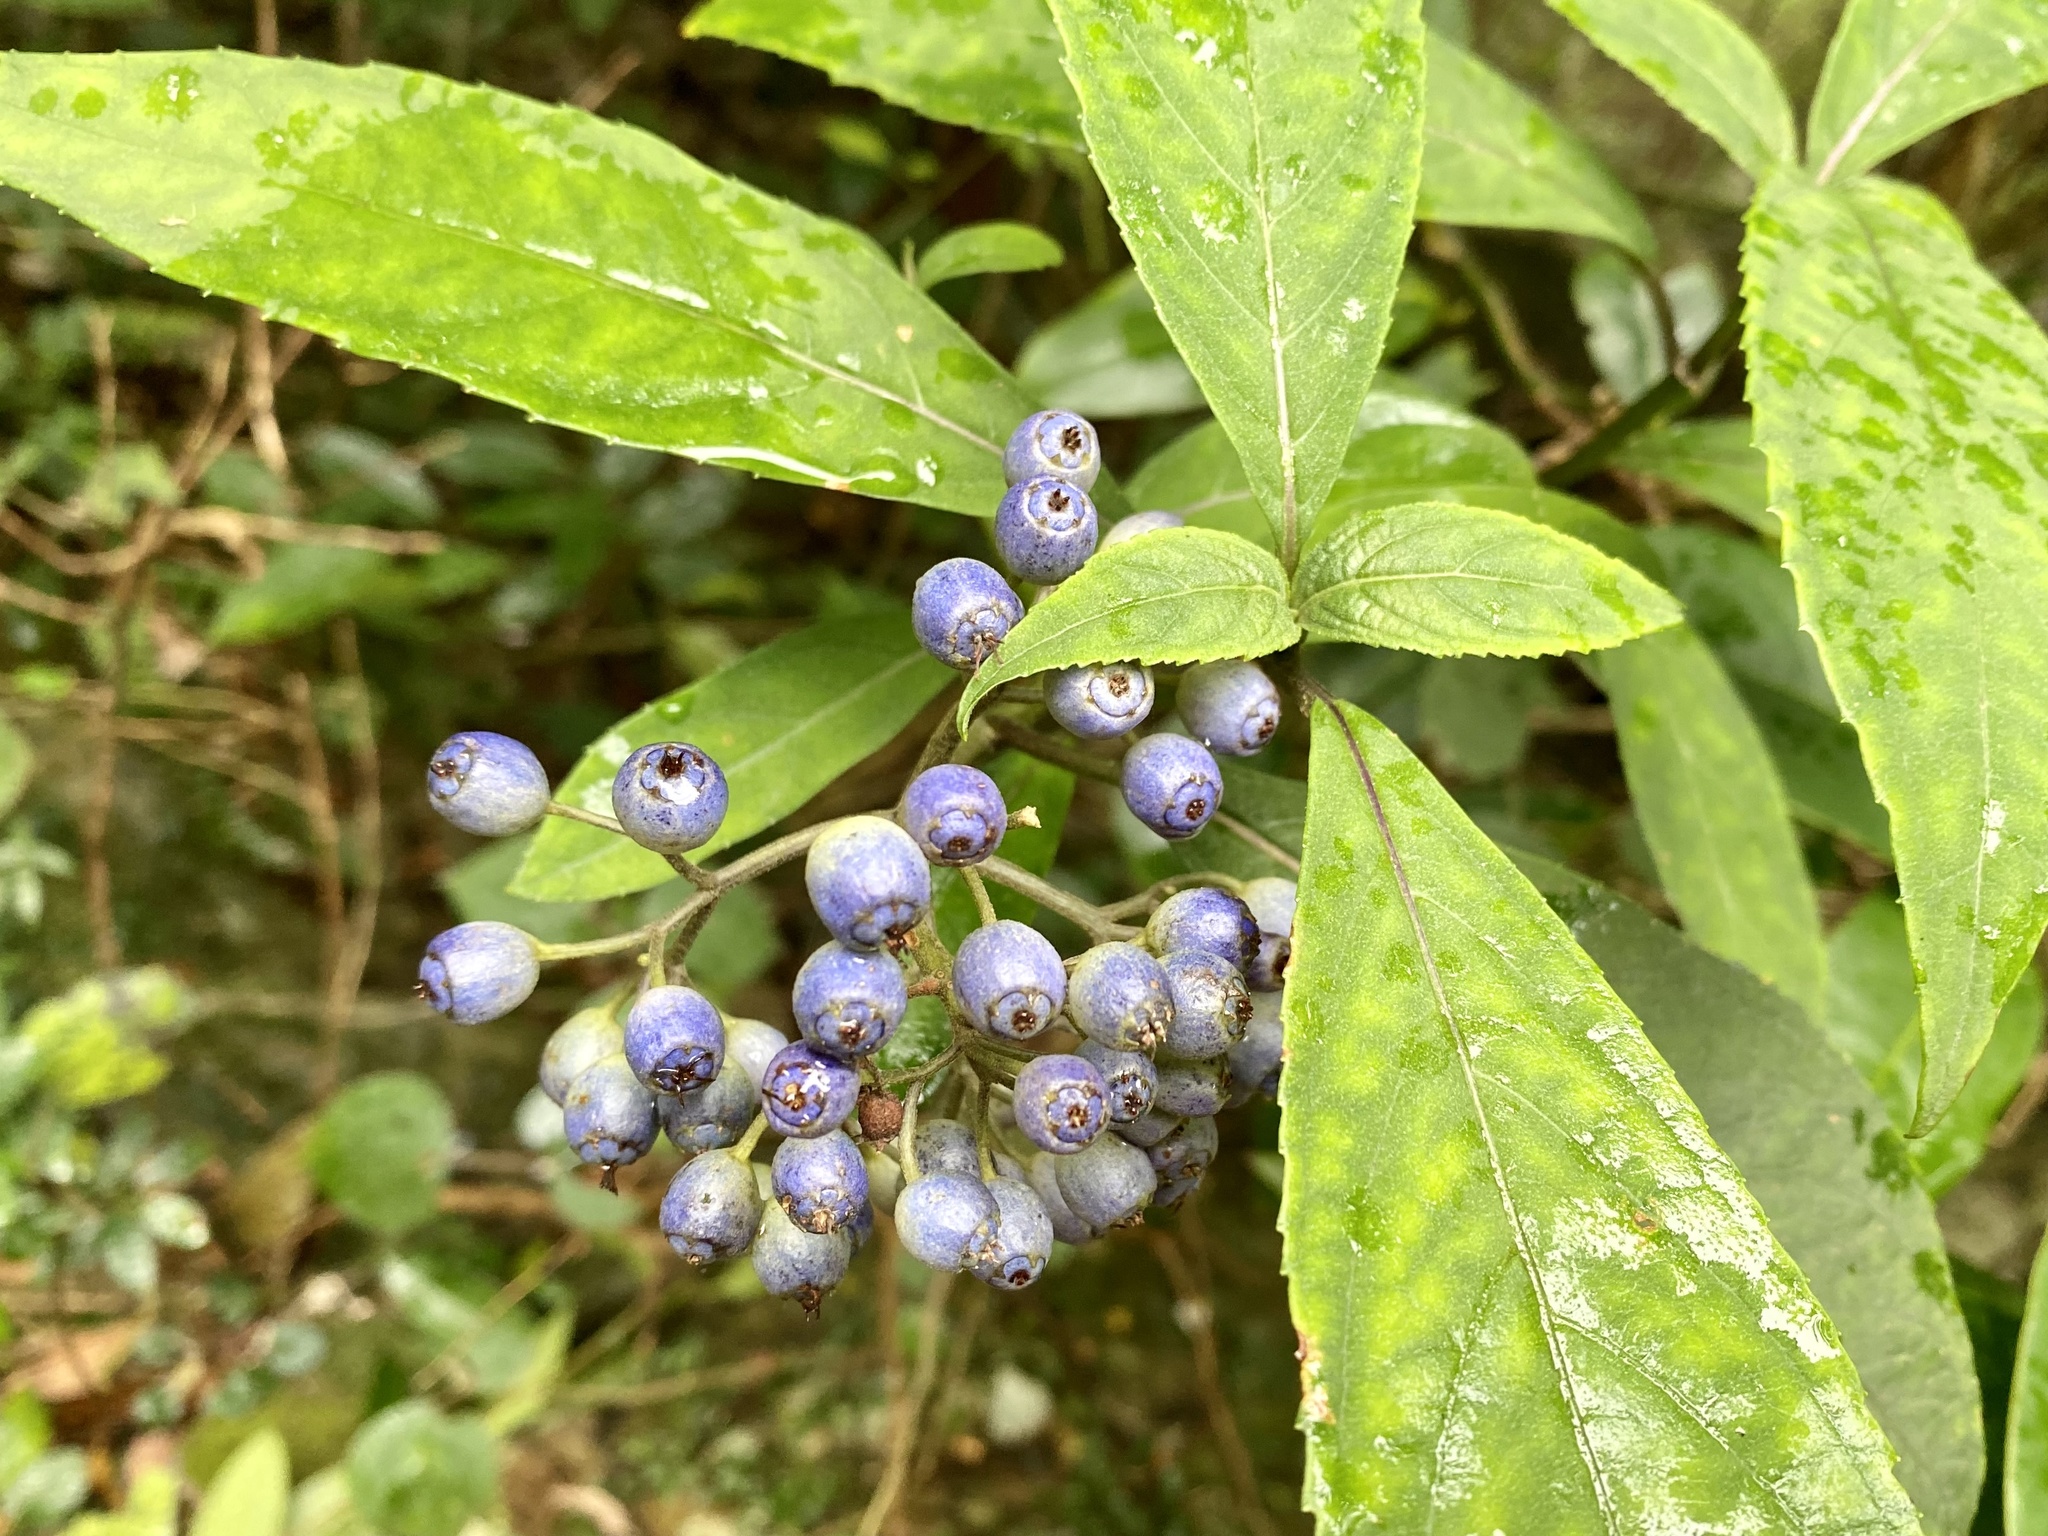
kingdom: Plantae
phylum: Tracheophyta
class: Magnoliopsida
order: Cornales
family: Hydrangeaceae
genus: Hydrangea
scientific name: Hydrangea febrifuga
